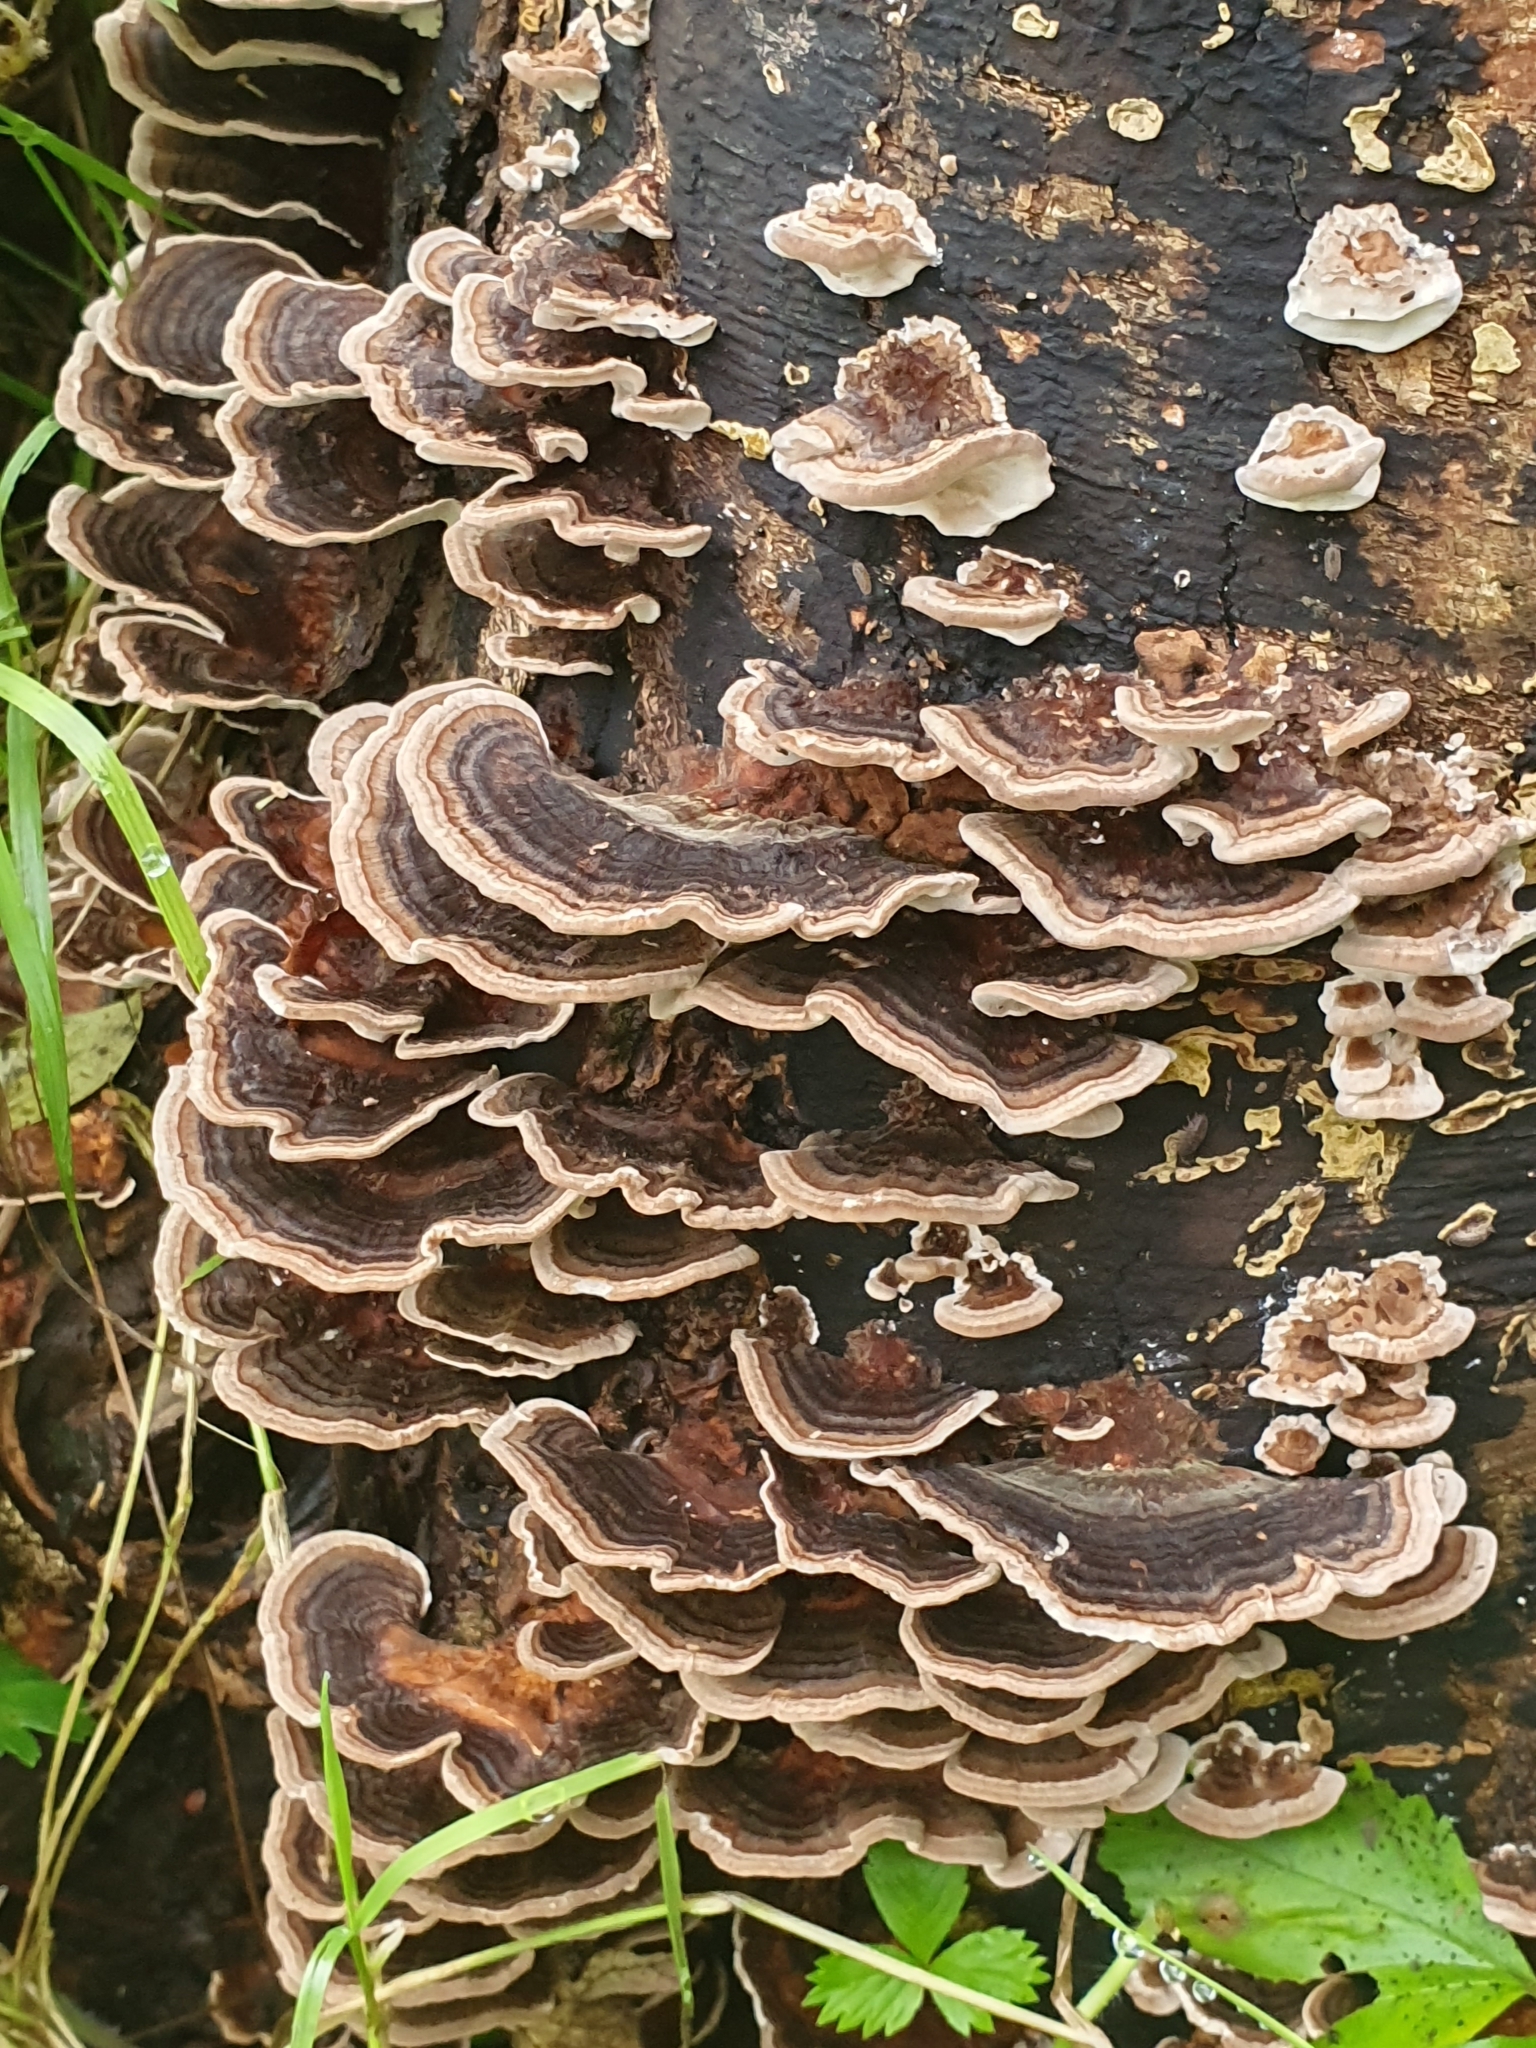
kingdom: Fungi
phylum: Basidiomycota
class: Agaricomycetes
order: Polyporales
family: Polyporaceae
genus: Trametes
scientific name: Trametes versicolor
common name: Turkeytail
